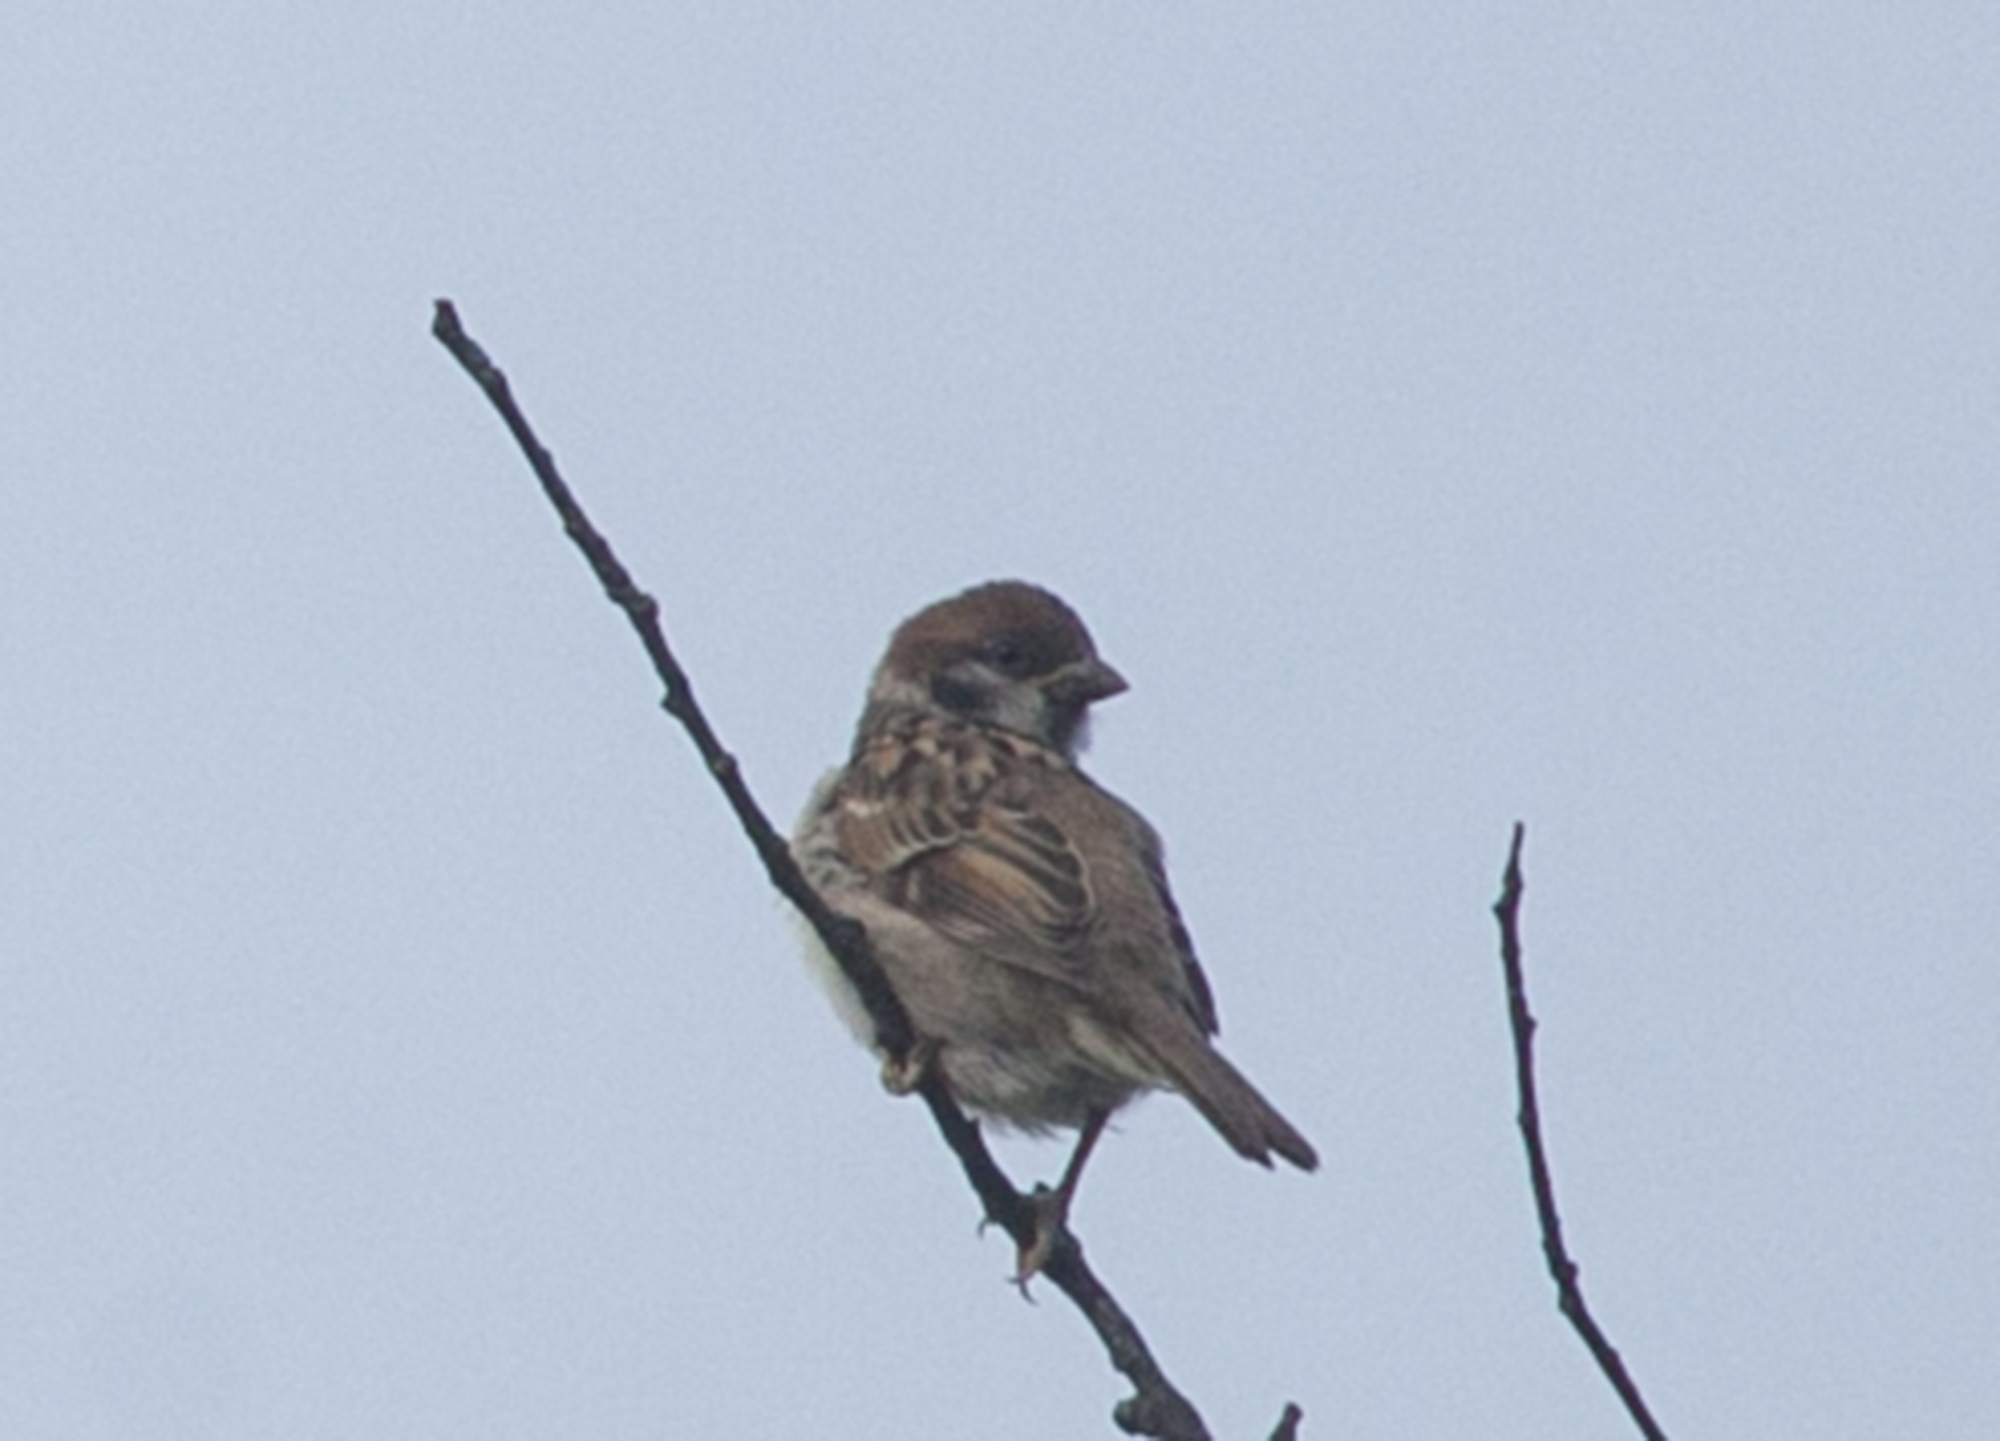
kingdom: Animalia
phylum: Chordata
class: Aves
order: Passeriformes
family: Passeridae
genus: Passer
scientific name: Passer montanus
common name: Eurasian tree sparrow
